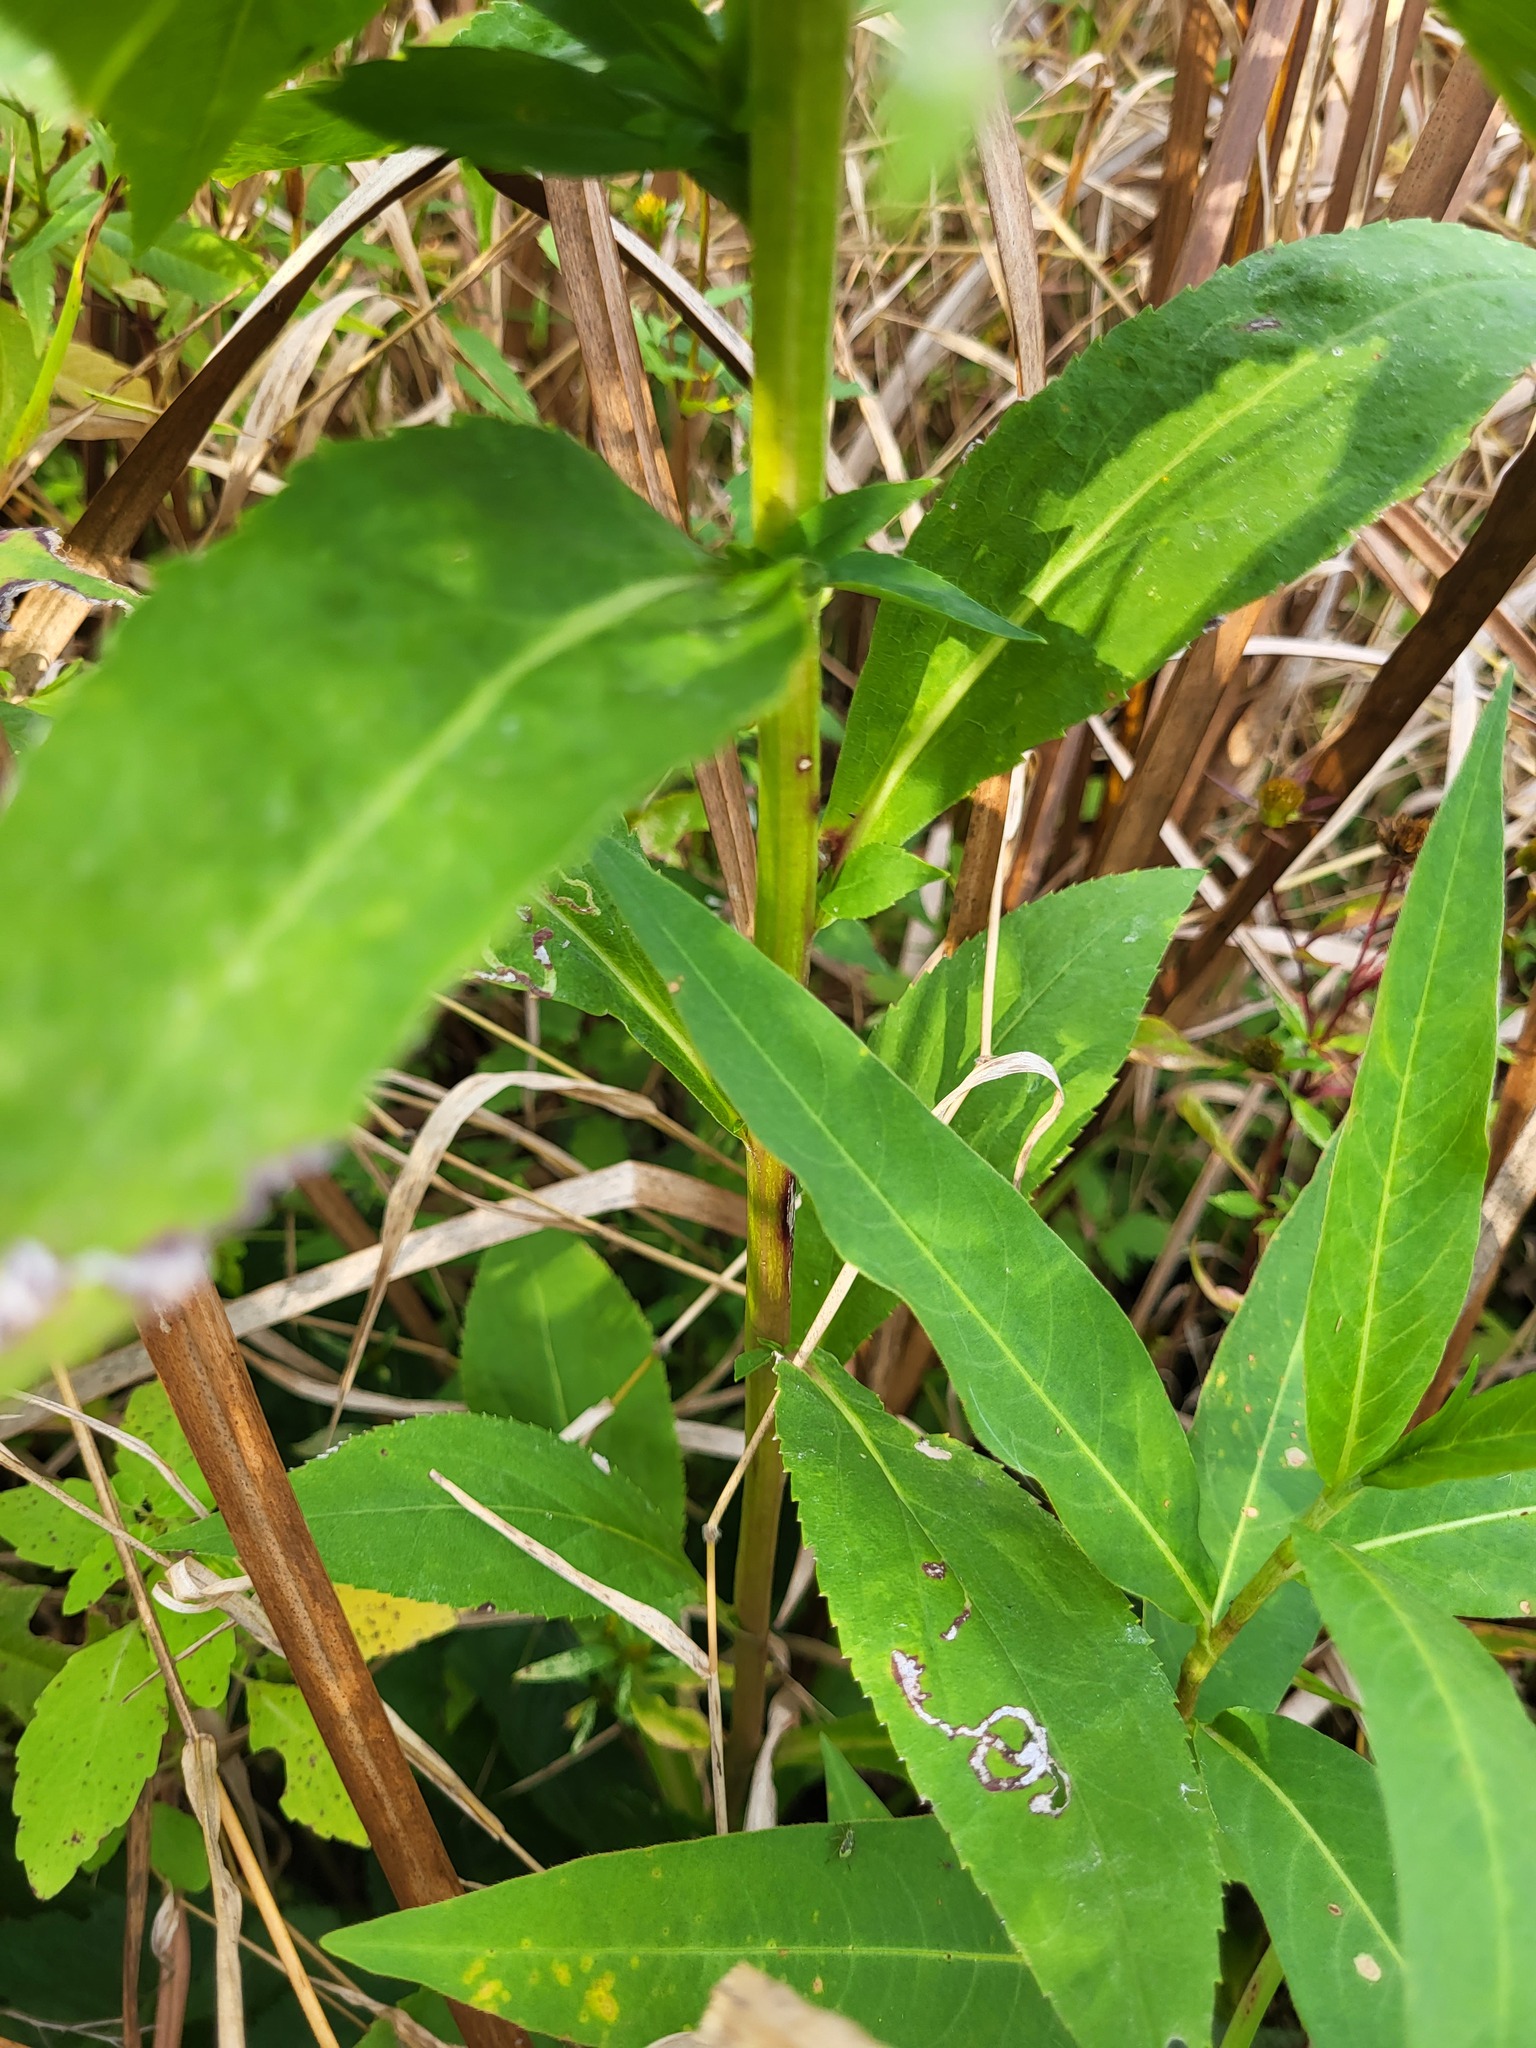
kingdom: Plantae
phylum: Tracheophyta
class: Magnoliopsida
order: Asterales
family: Asteraceae
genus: Solidago
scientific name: Solidago patula
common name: Rough-leaf goldenrod
